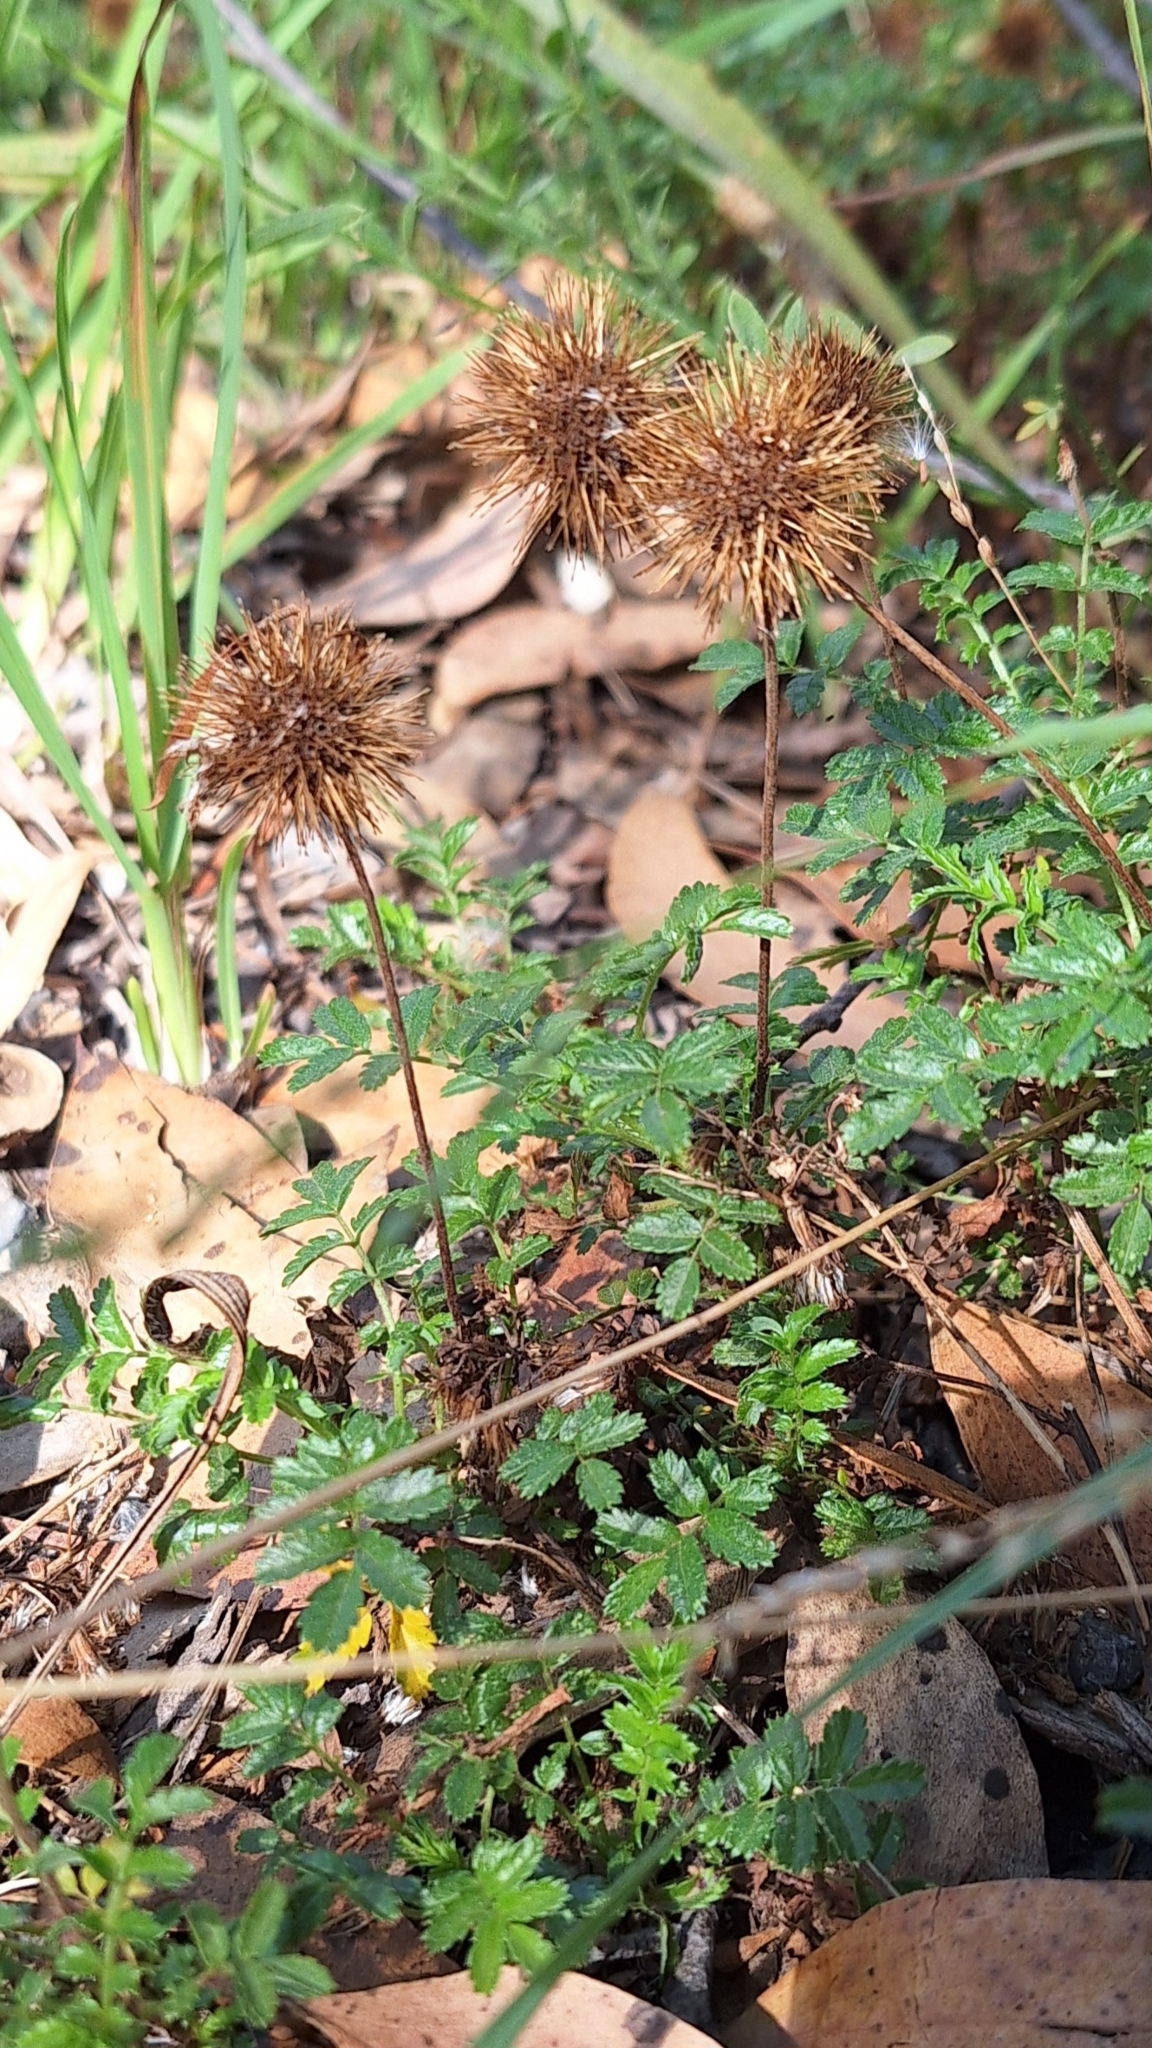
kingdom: Plantae
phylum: Tracheophyta
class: Magnoliopsida
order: Rosales
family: Rosaceae
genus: Acaena
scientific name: Acaena novae-zelandiae
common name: Pirri-pirri-bur
